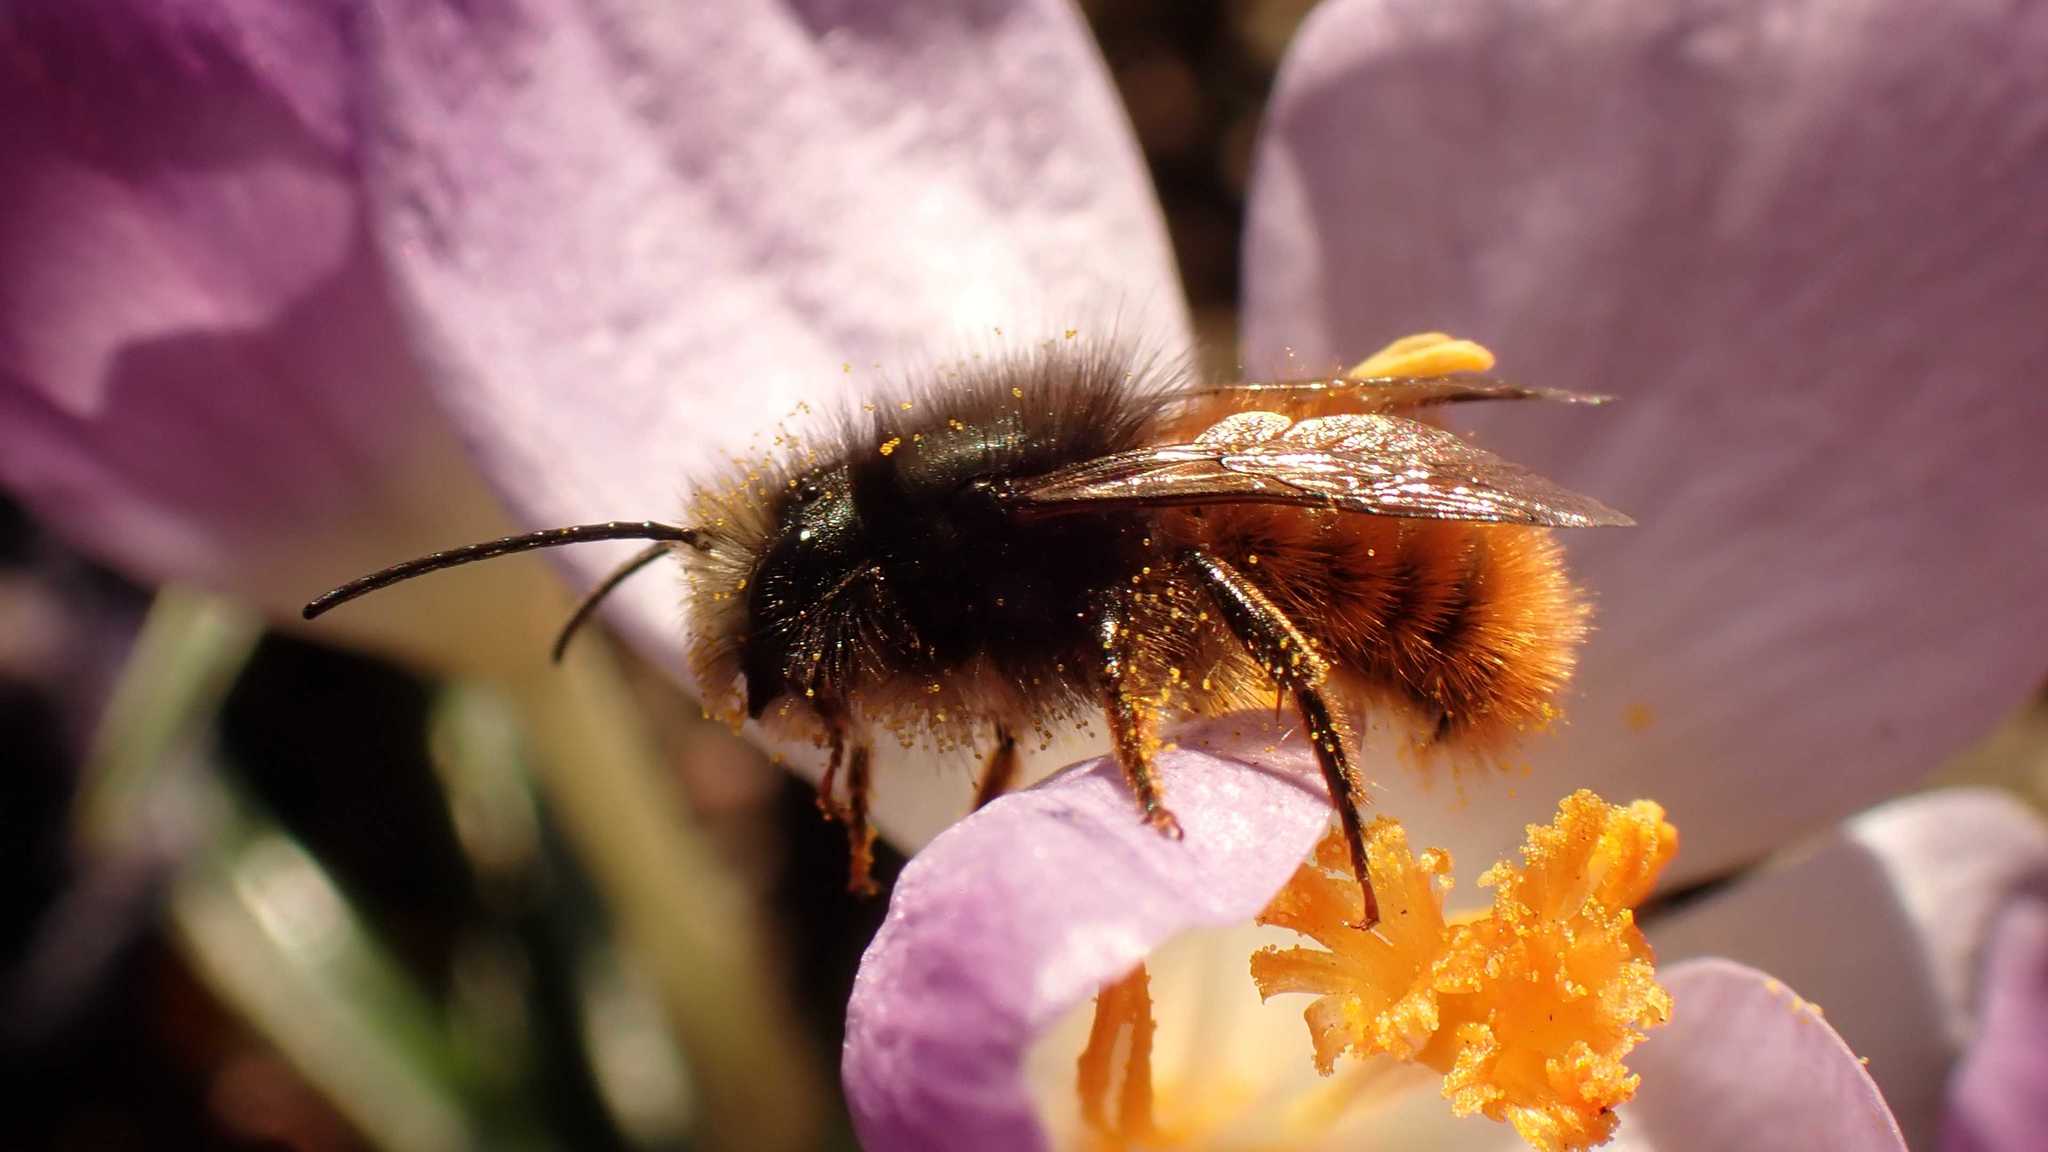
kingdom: Animalia
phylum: Arthropoda
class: Insecta
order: Hymenoptera
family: Megachilidae
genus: Osmia
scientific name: Osmia cornuta
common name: Mason bee
